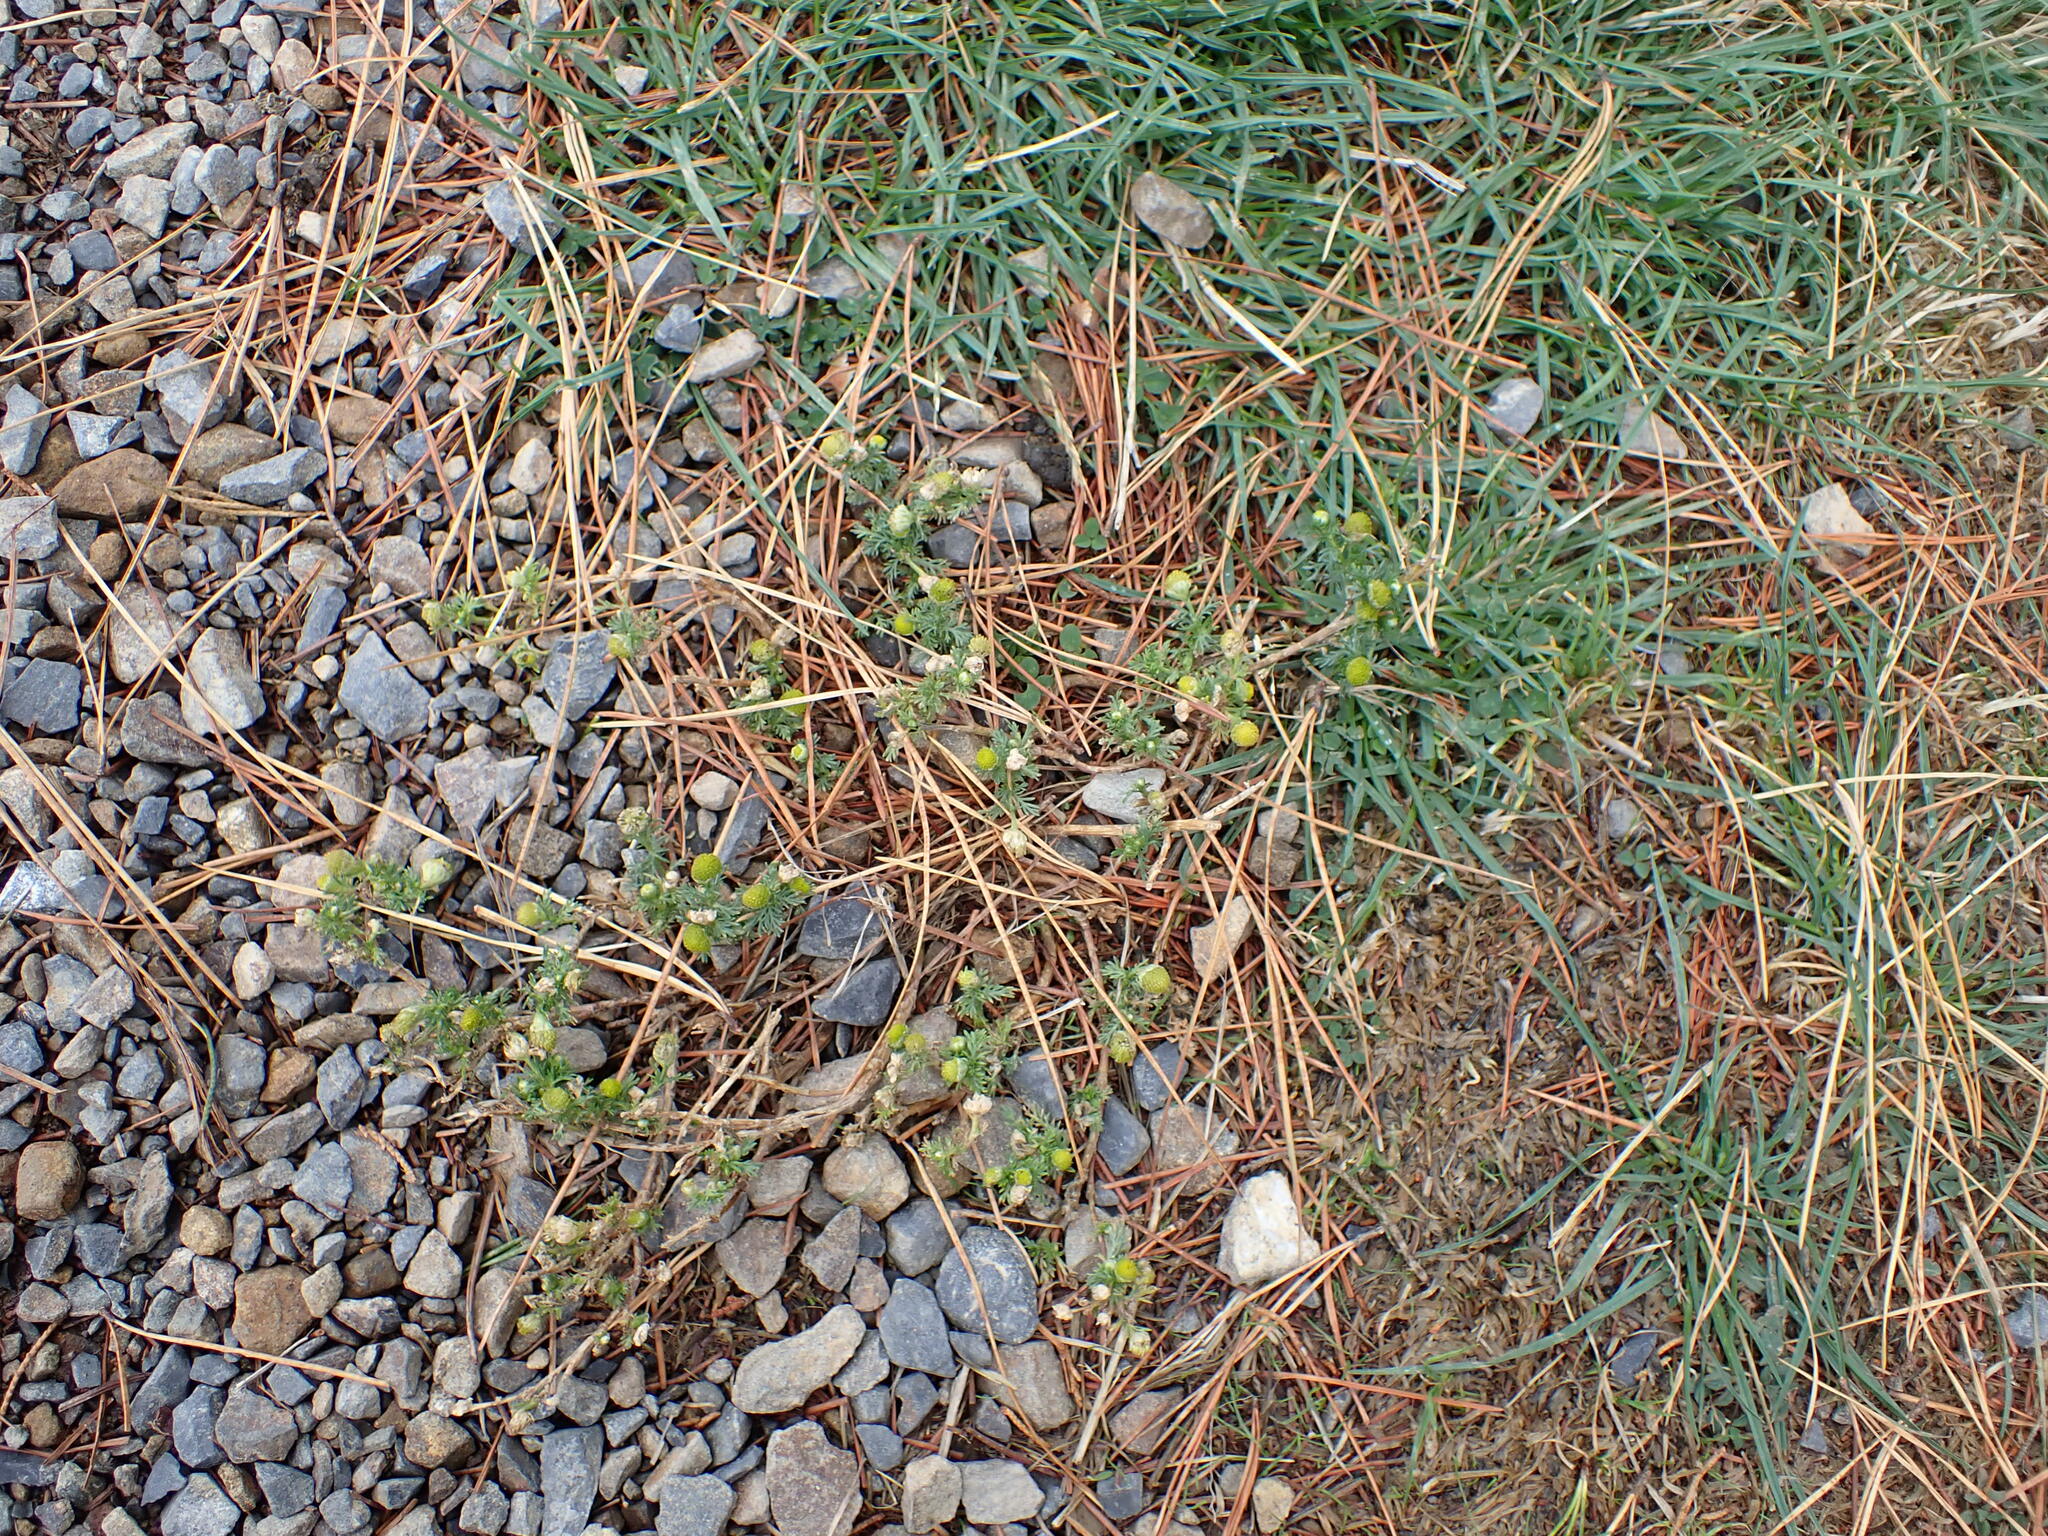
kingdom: Plantae
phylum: Tracheophyta
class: Magnoliopsida
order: Asterales
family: Asteraceae
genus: Matricaria
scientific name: Matricaria discoidea
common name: Disc mayweed
